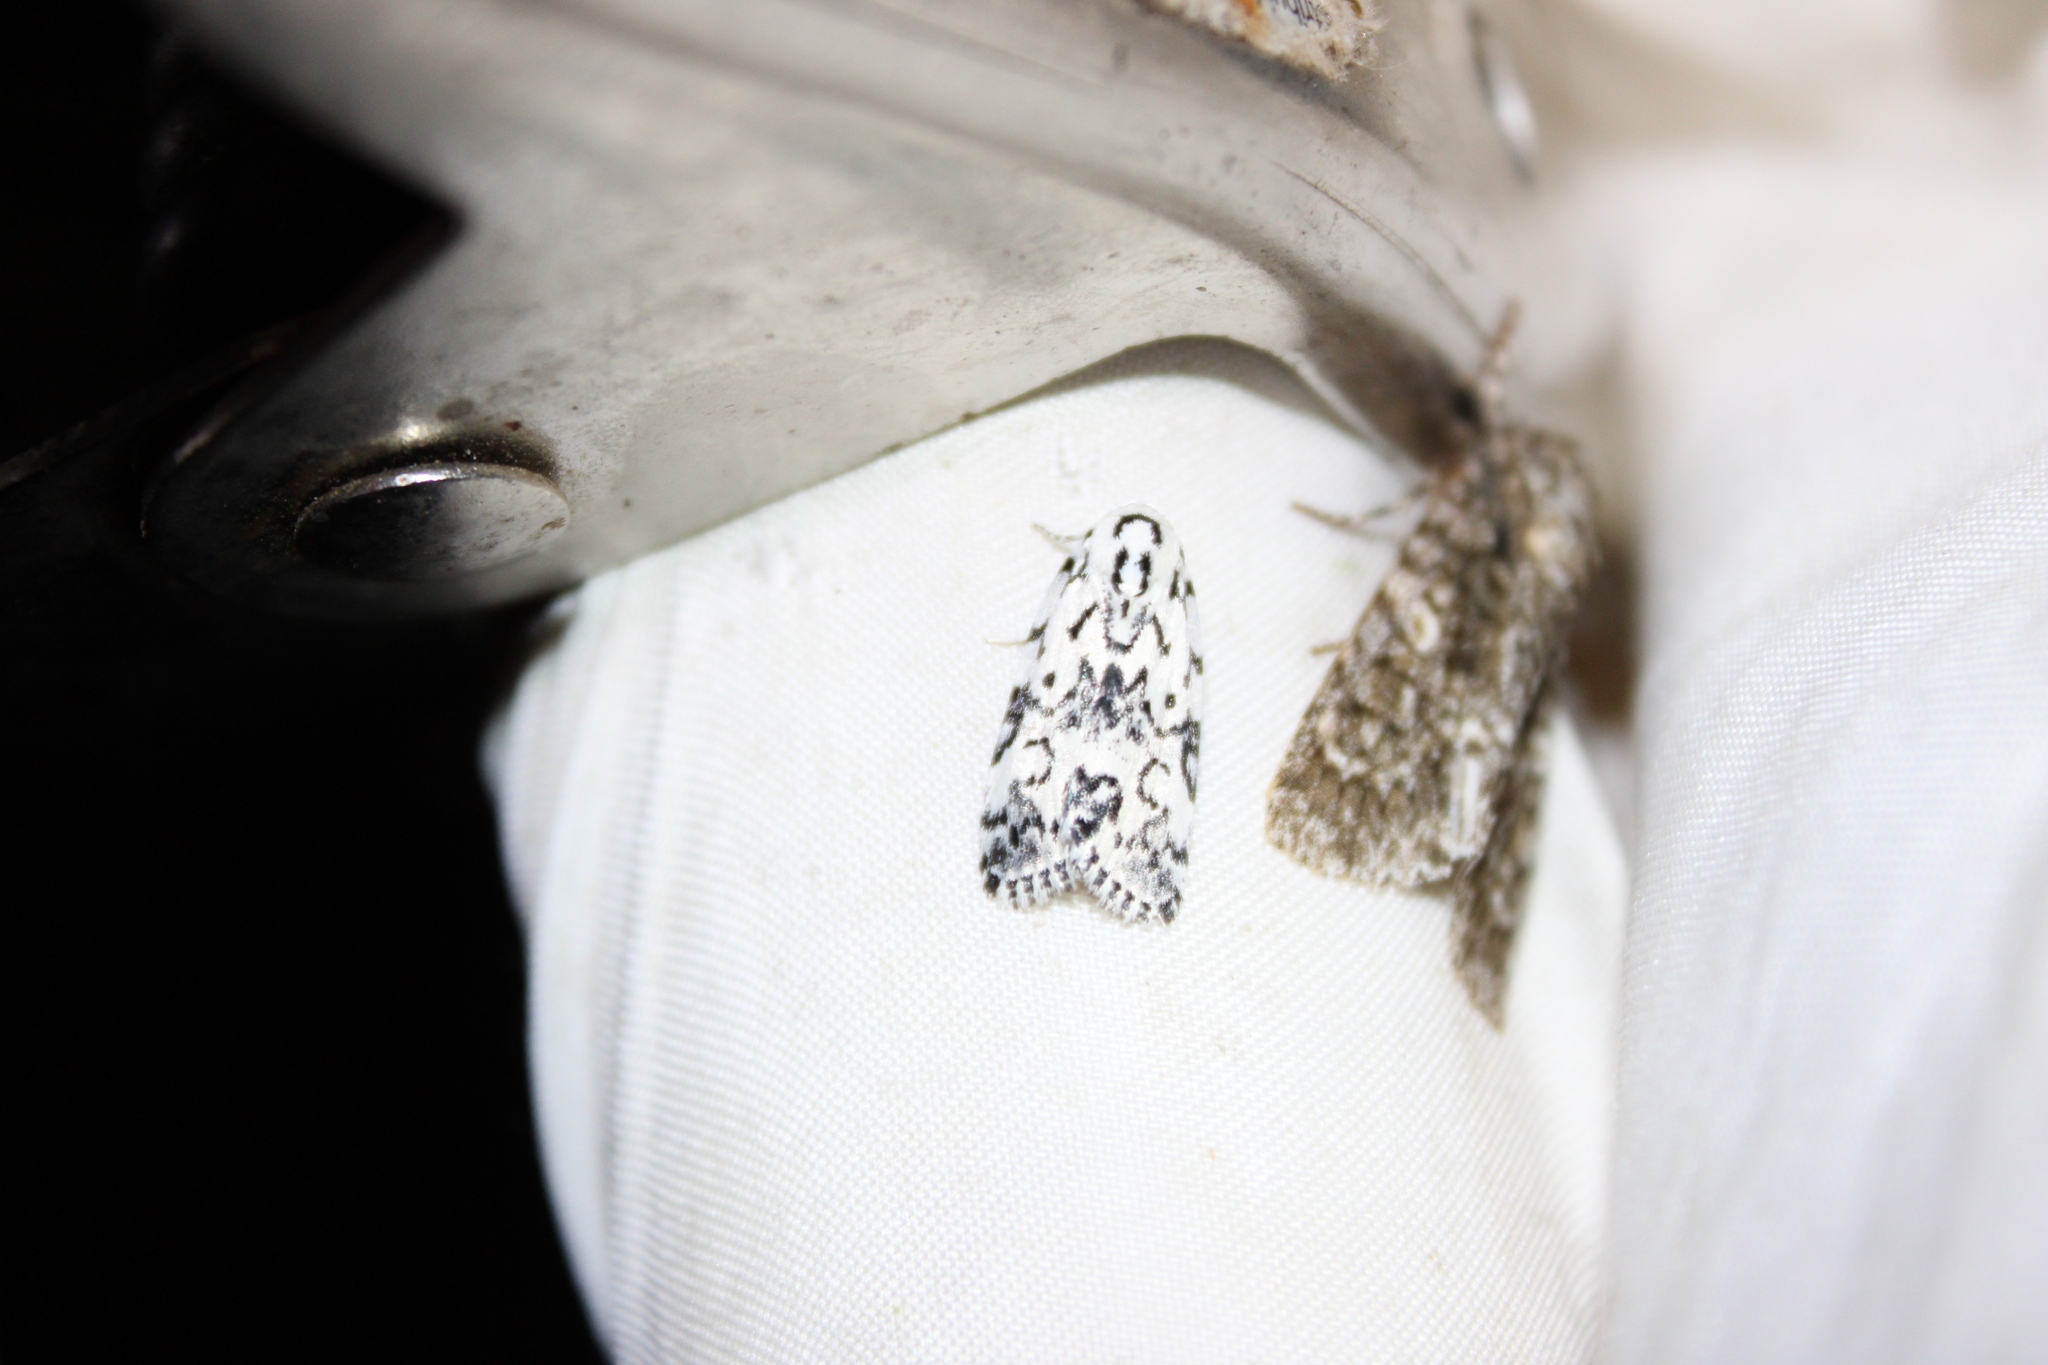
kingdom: Animalia
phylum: Arthropoda
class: Insecta
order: Lepidoptera
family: Noctuidae
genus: Polygrammate
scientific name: Polygrammate hebraeicum
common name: Hebrew moth
